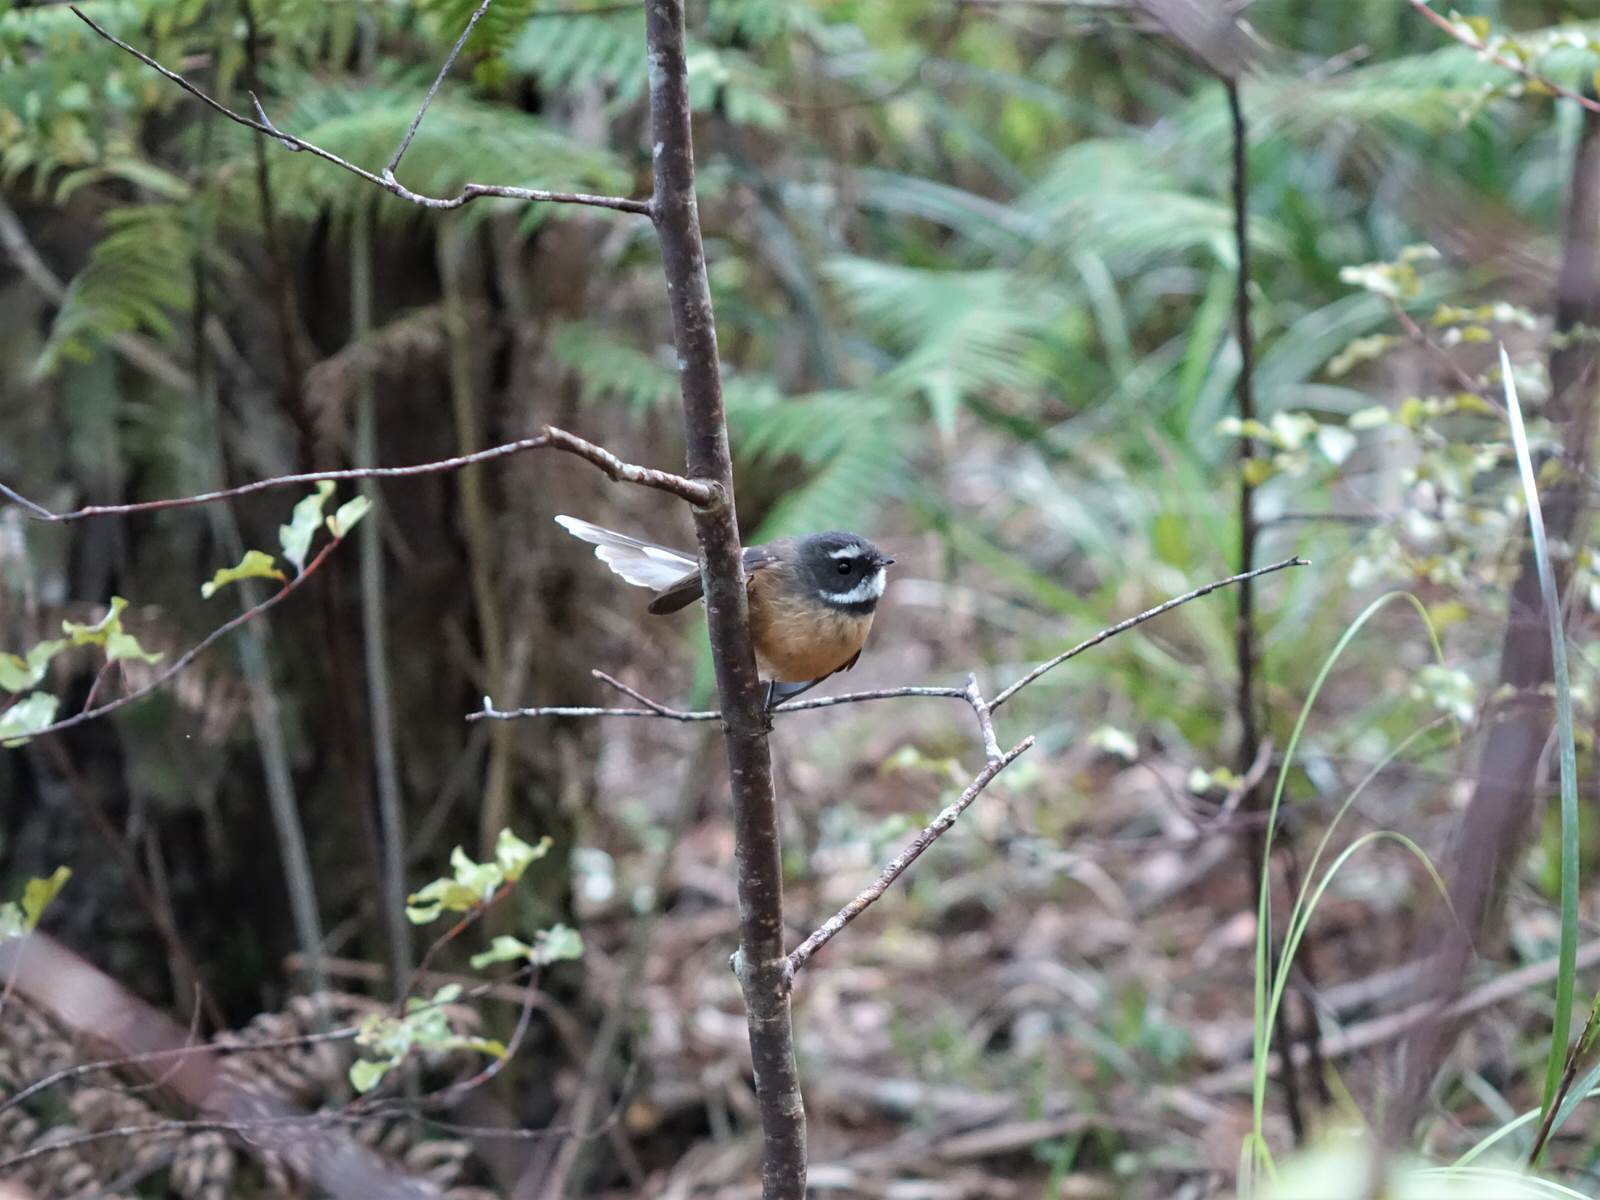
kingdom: Animalia
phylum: Chordata
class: Aves
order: Passeriformes
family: Rhipiduridae
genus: Rhipidura
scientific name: Rhipidura fuliginosa
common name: New zealand fantail
